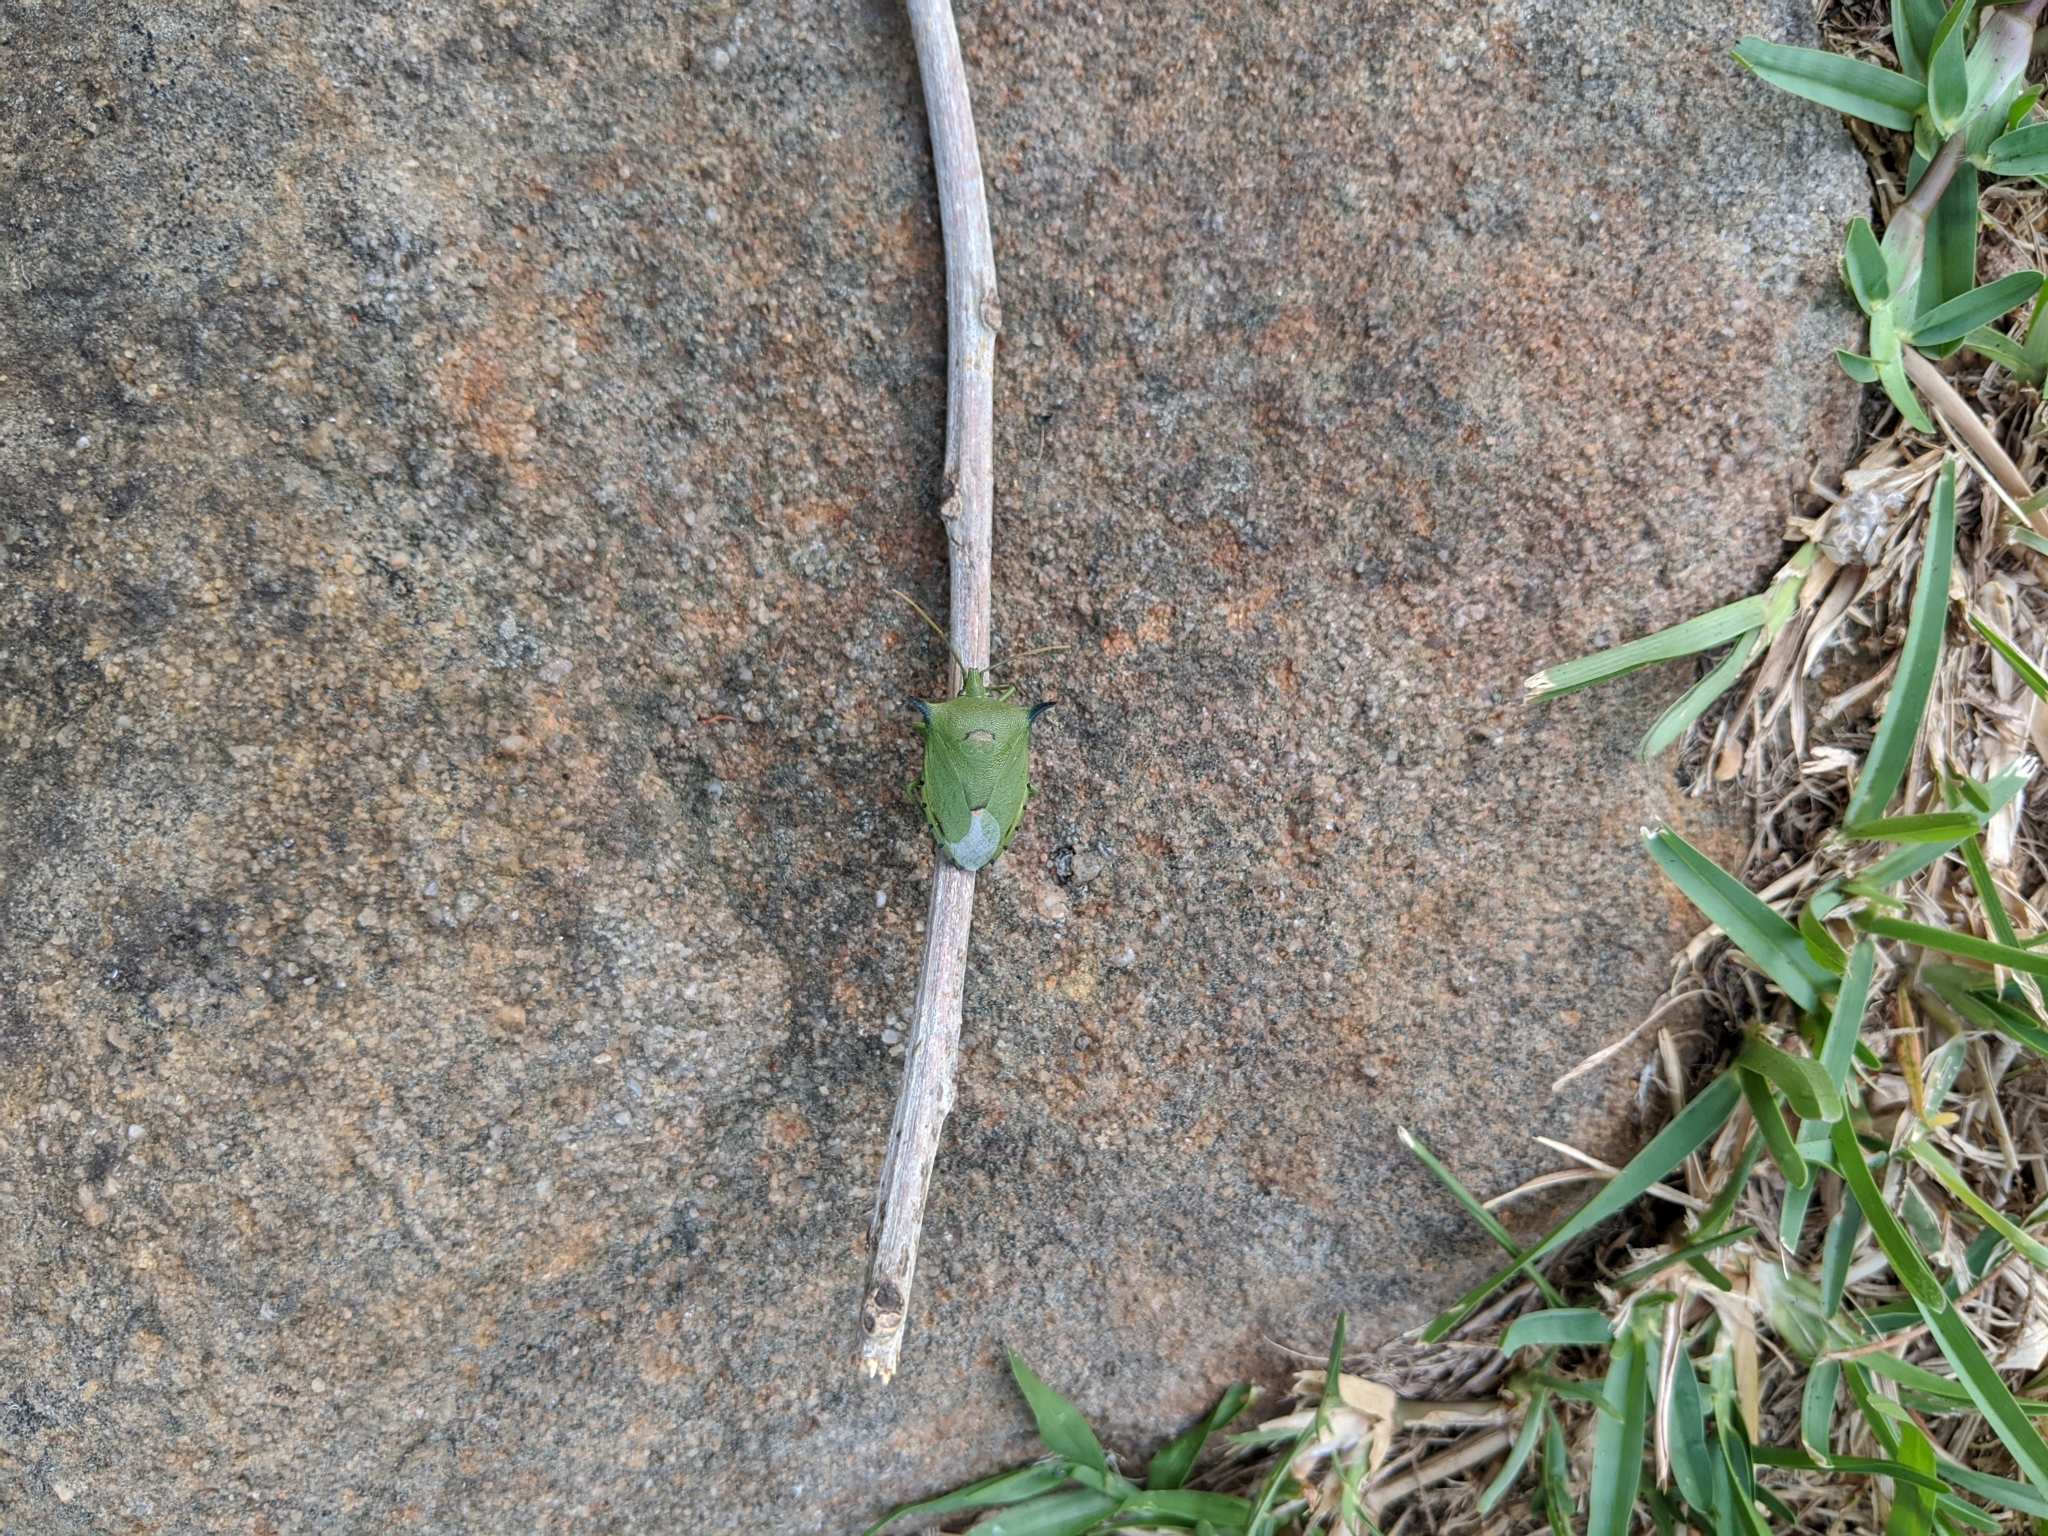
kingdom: Animalia
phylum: Arthropoda
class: Insecta
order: Hemiptera
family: Pentatomidae
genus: Biprorulus
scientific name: Biprorulus
